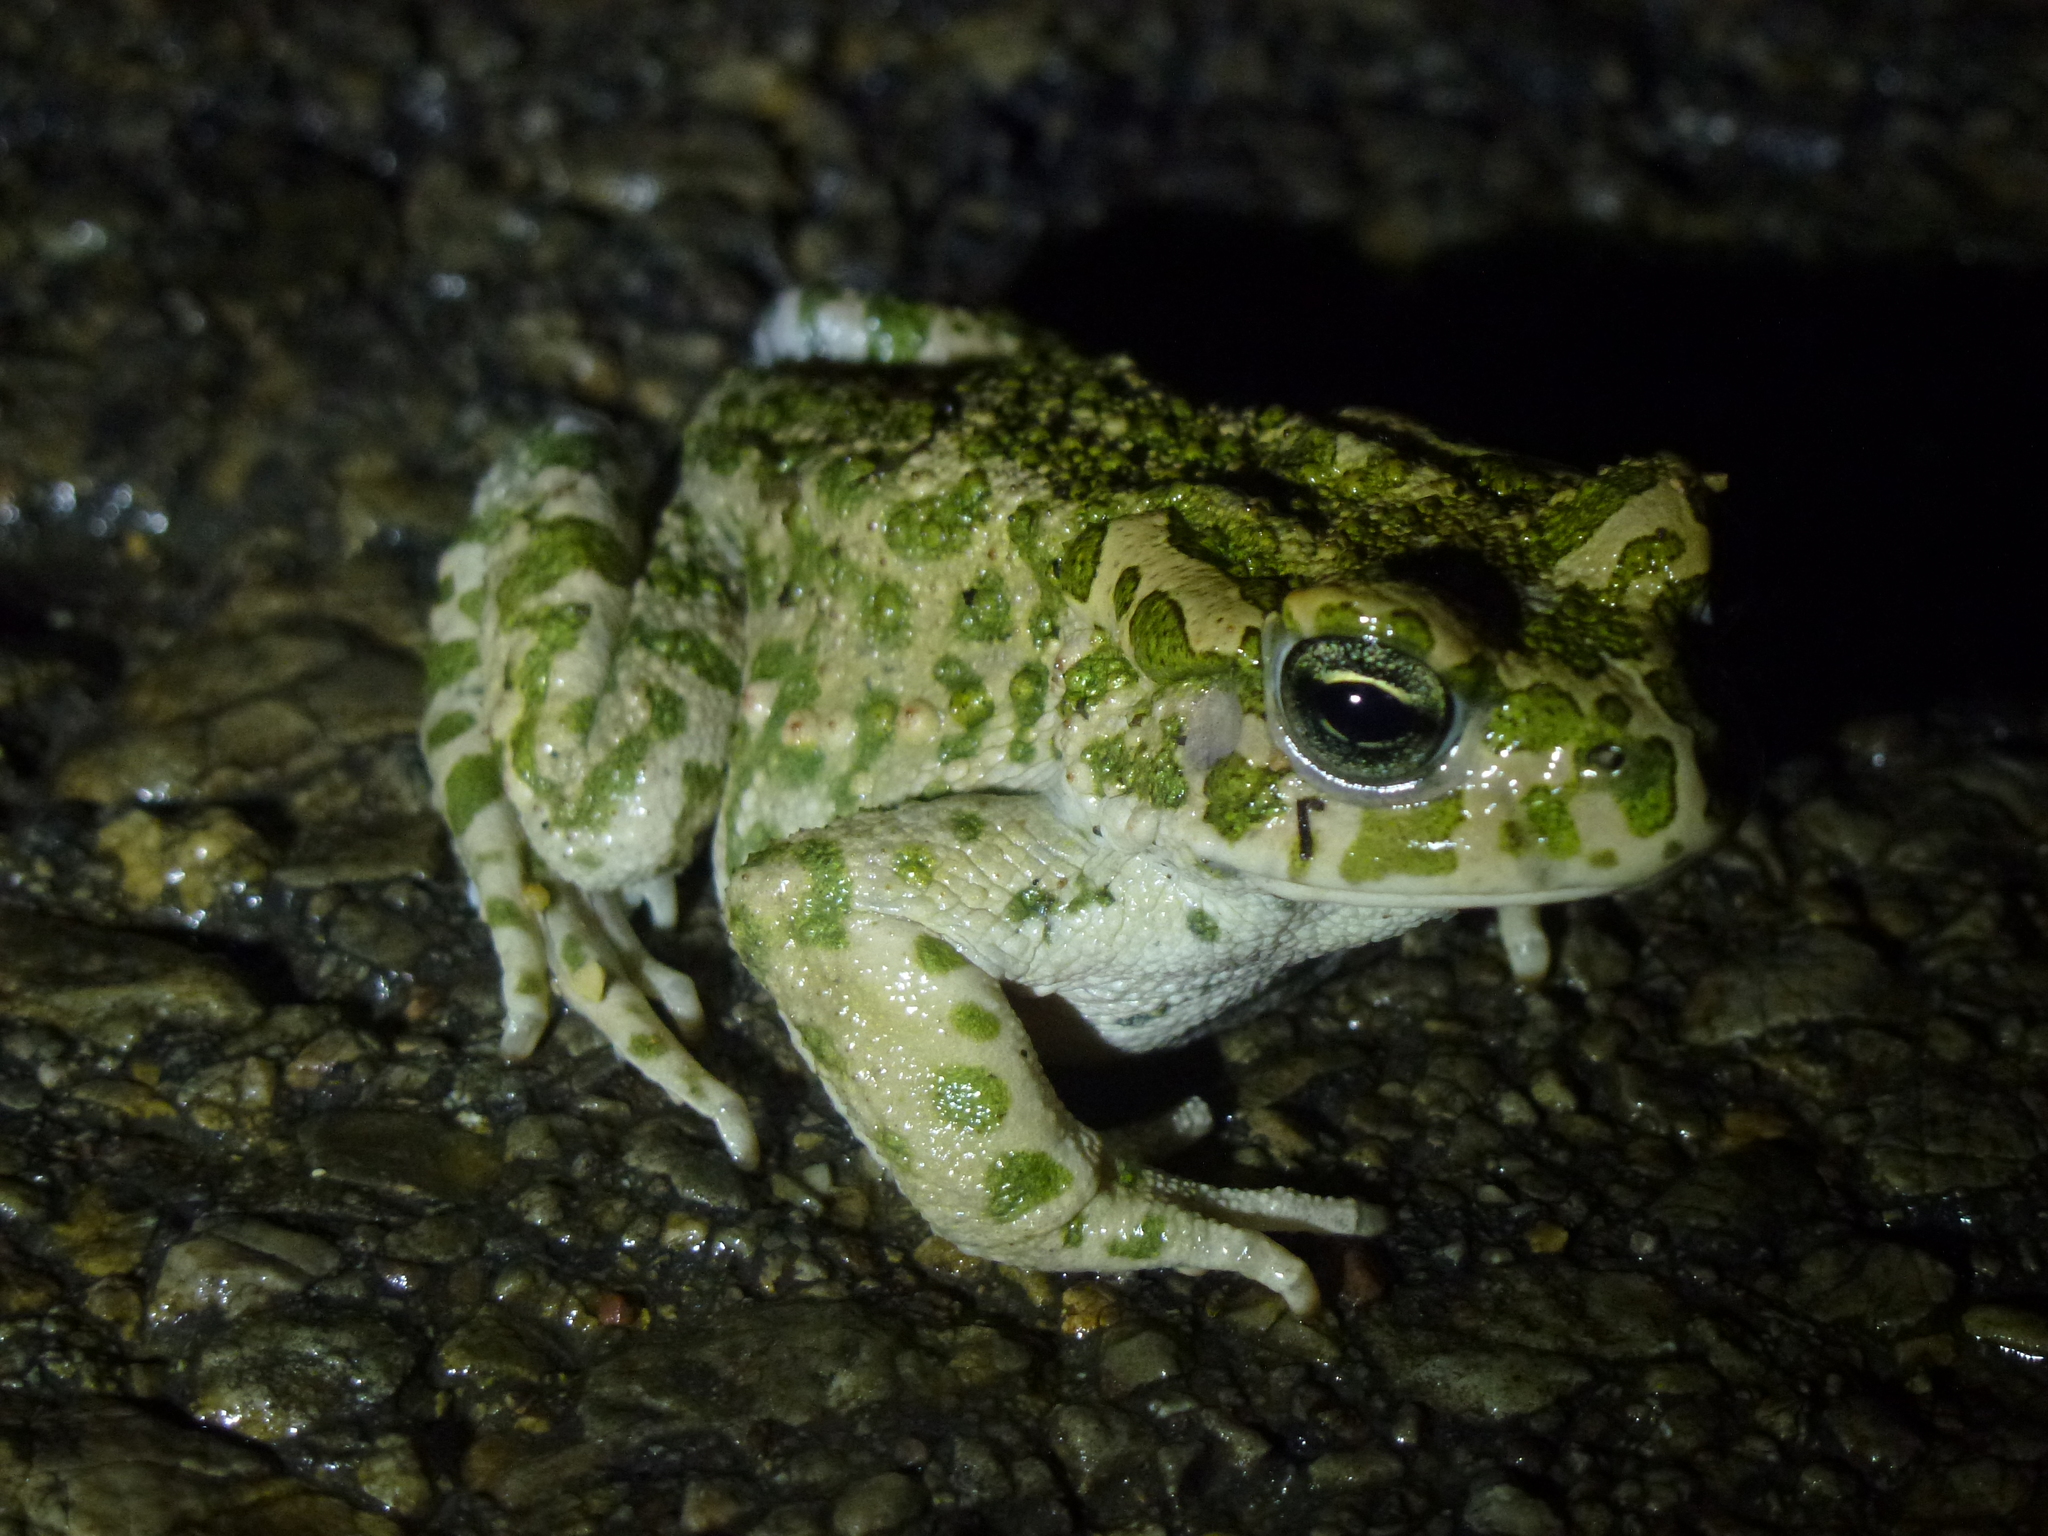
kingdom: Animalia
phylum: Chordata
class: Amphibia
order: Anura
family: Bufonidae
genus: Bufotes
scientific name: Bufotes viridis
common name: European green toad
